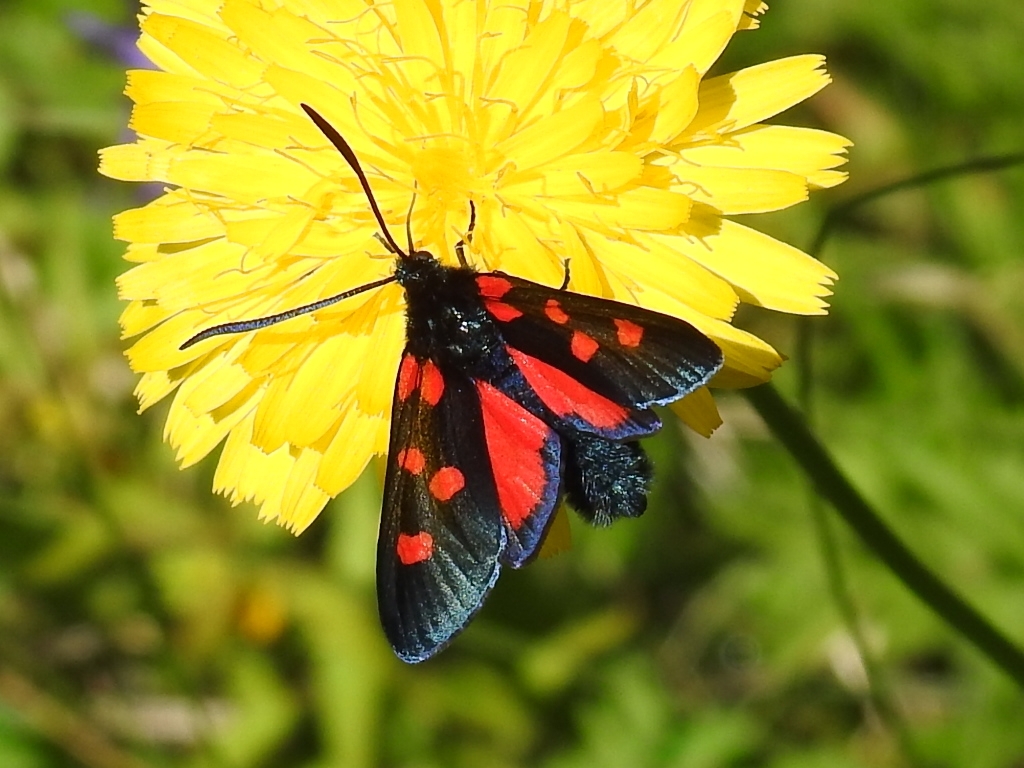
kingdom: Animalia
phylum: Arthropoda
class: Insecta
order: Lepidoptera
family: Zygaenidae
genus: Zygaena
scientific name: Zygaena lonicerae
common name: Narrow-bordered five-spot burnet
